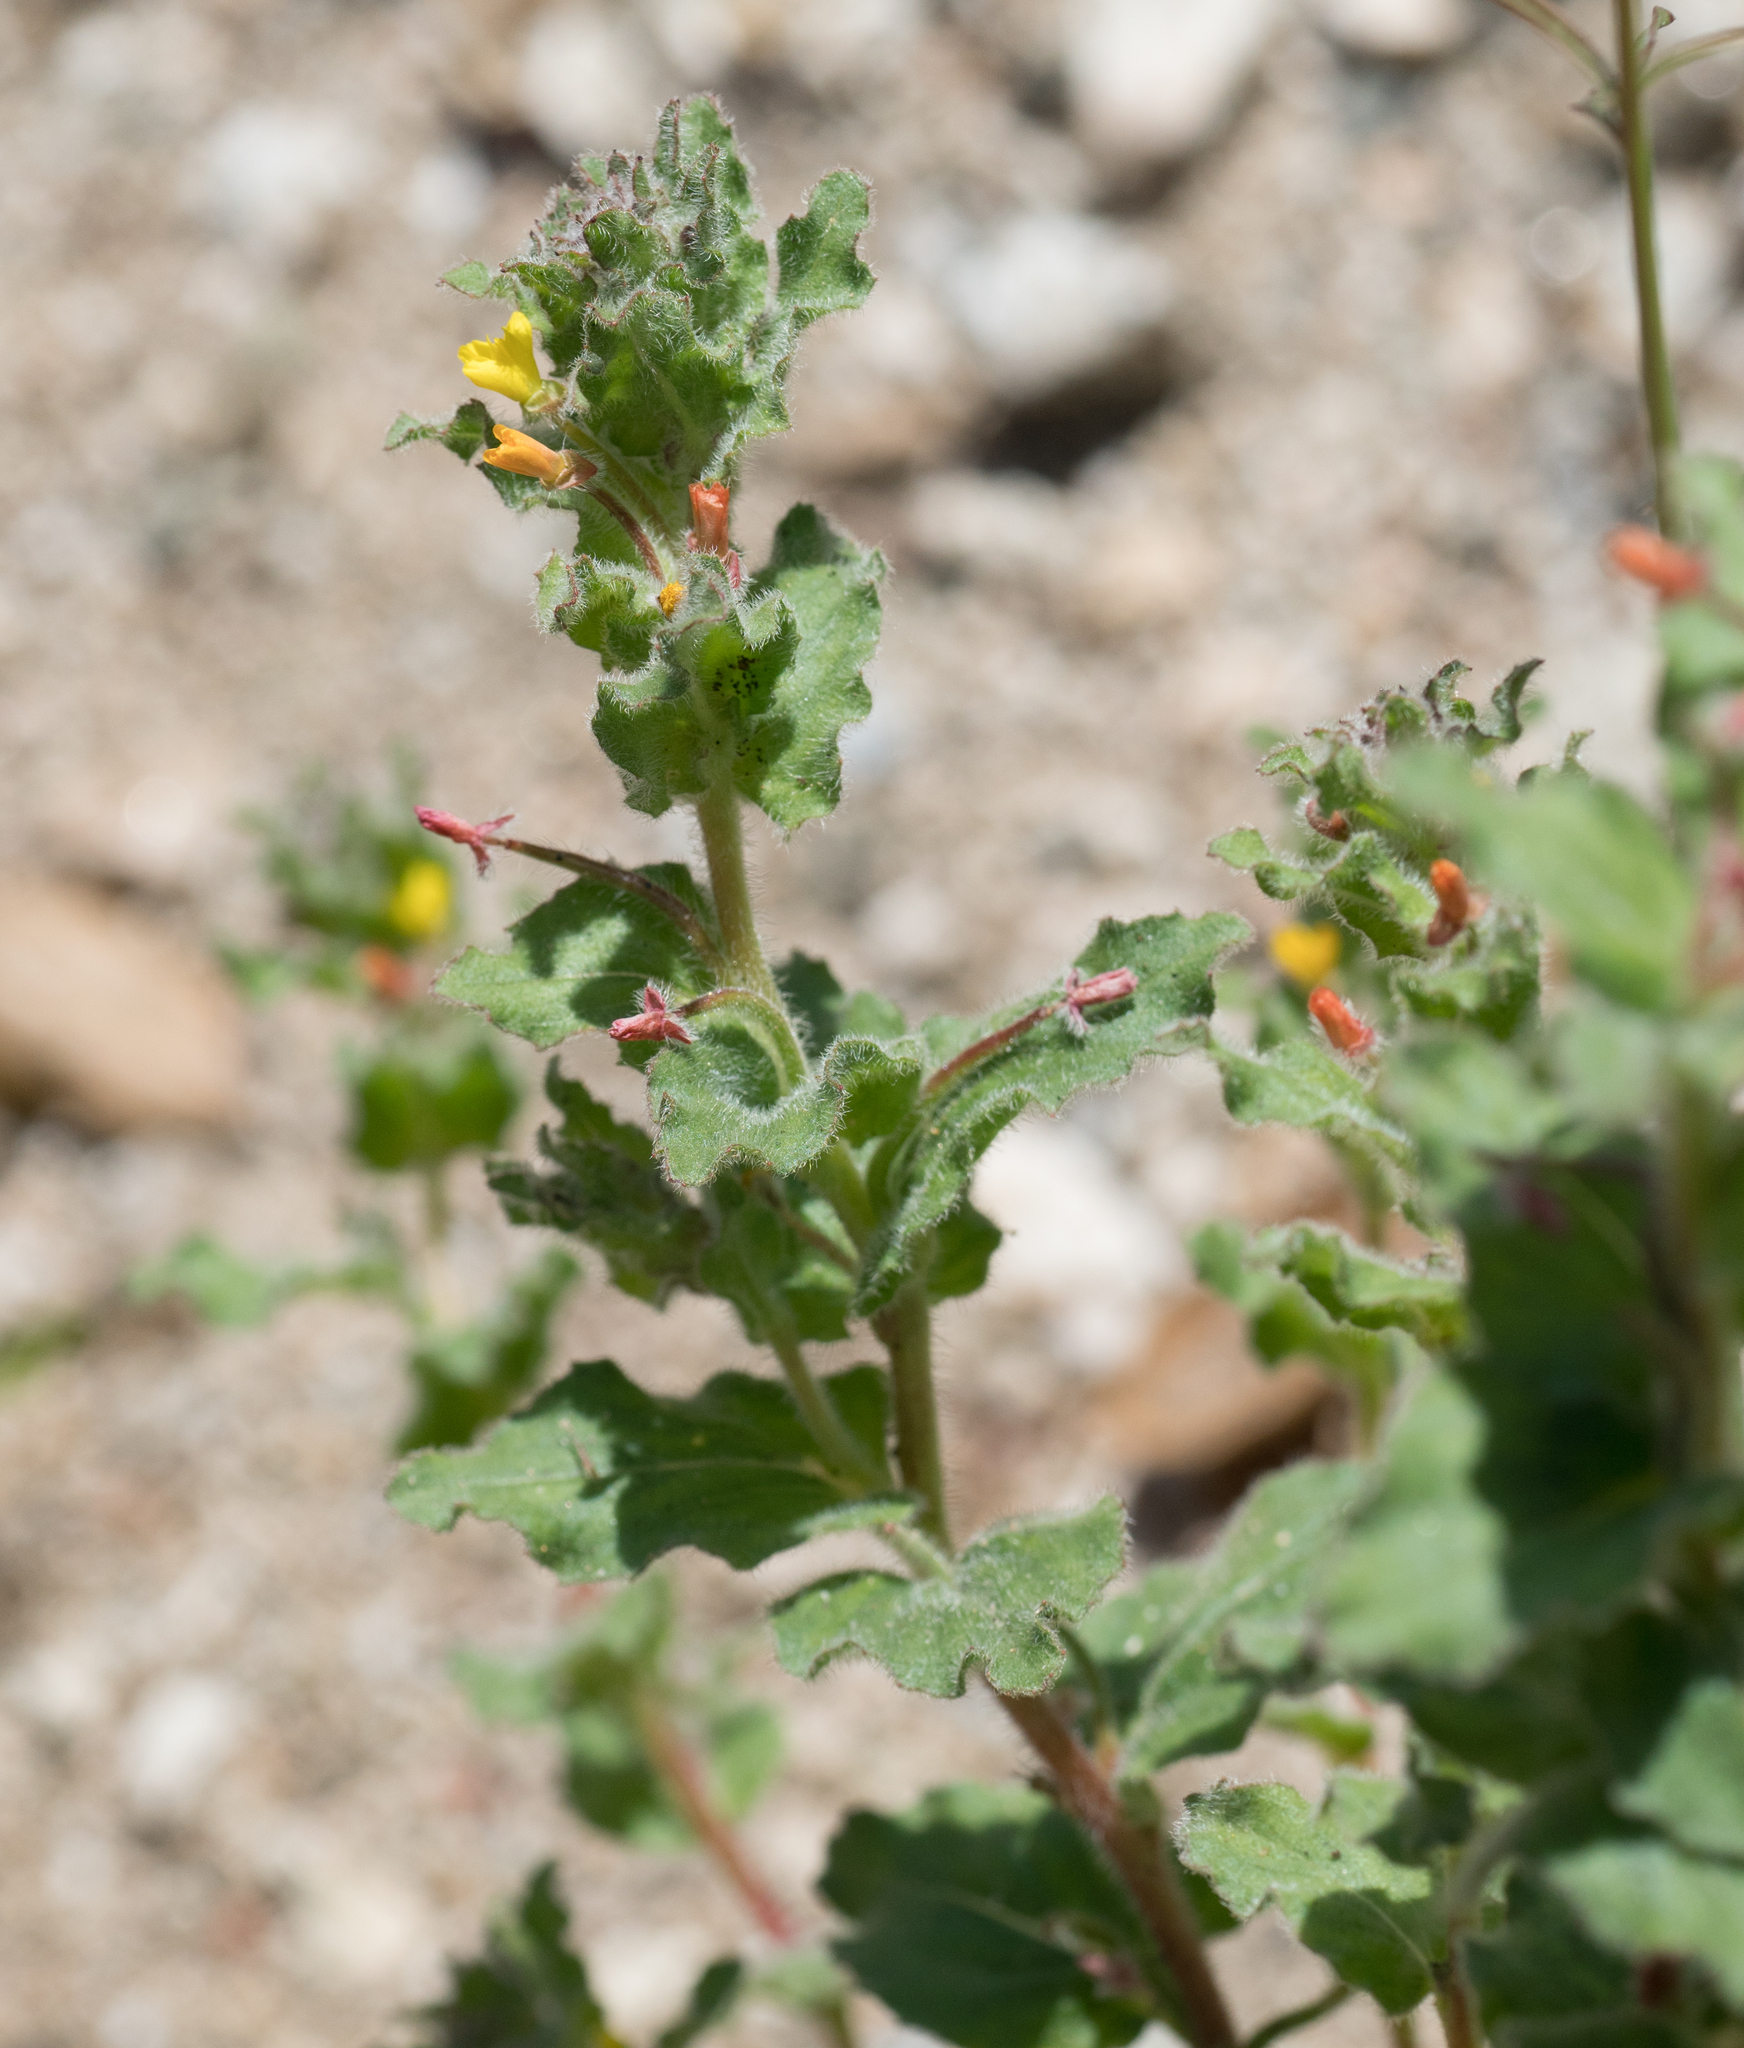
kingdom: Plantae
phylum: Tracheophyta
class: Magnoliopsida
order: Lamiales
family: Phrymaceae
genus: Erythranthe
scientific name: Erythranthe floribunda
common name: Floriferous monkeyflower
